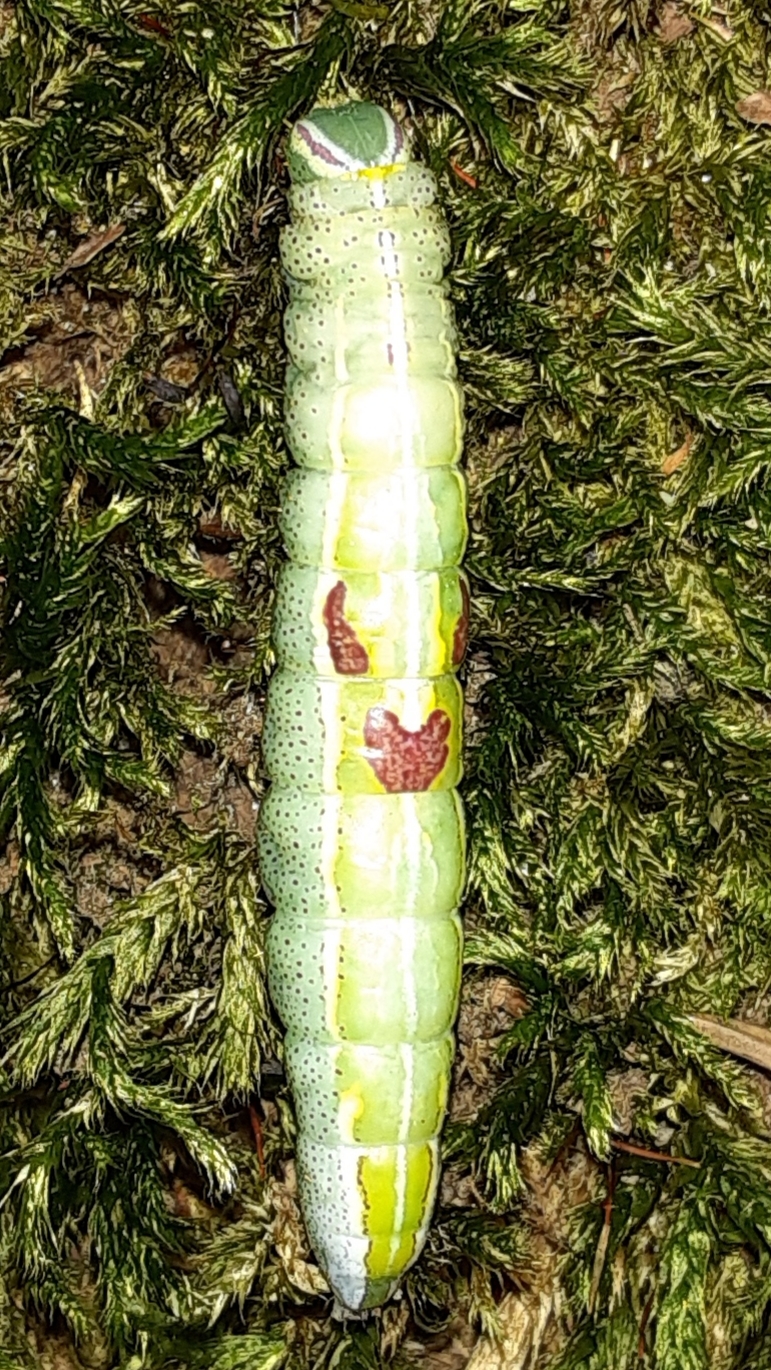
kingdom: Animalia
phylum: Arthropoda
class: Insecta
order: Lepidoptera
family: Notodontidae
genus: Disphragis
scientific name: Disphragis Cecrita guttivitta
